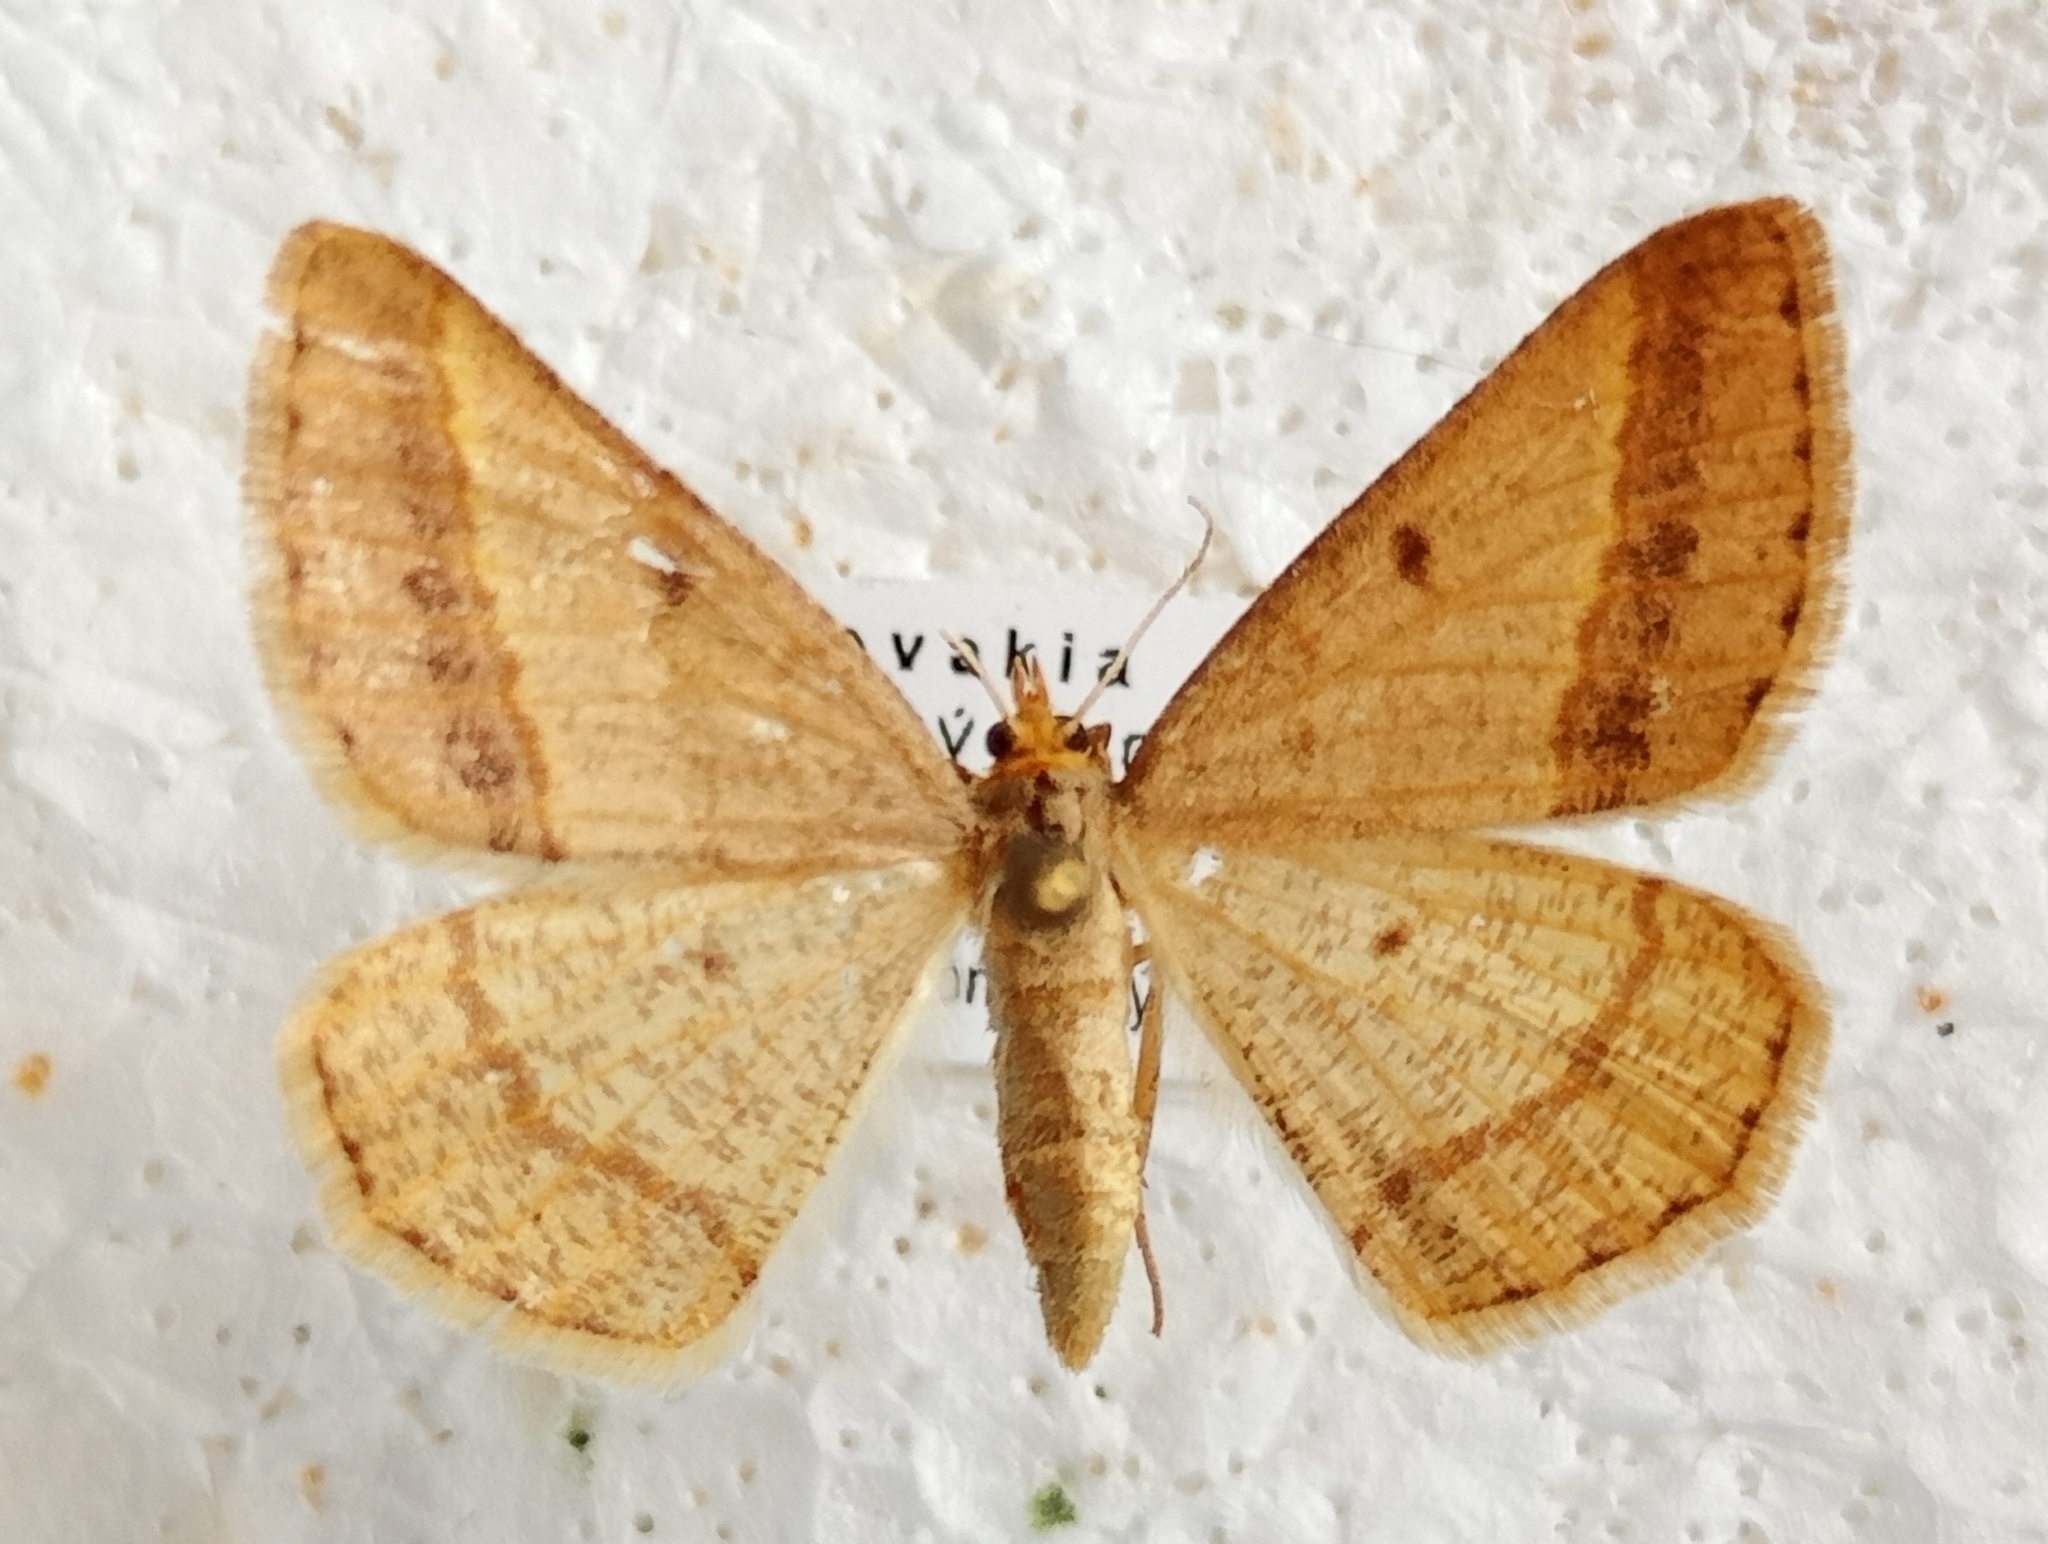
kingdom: Animalia
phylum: Arthropoda
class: Insecta
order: Lepidoptera
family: Geometridae
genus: Tephrina
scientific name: Tephrina arenacearia
